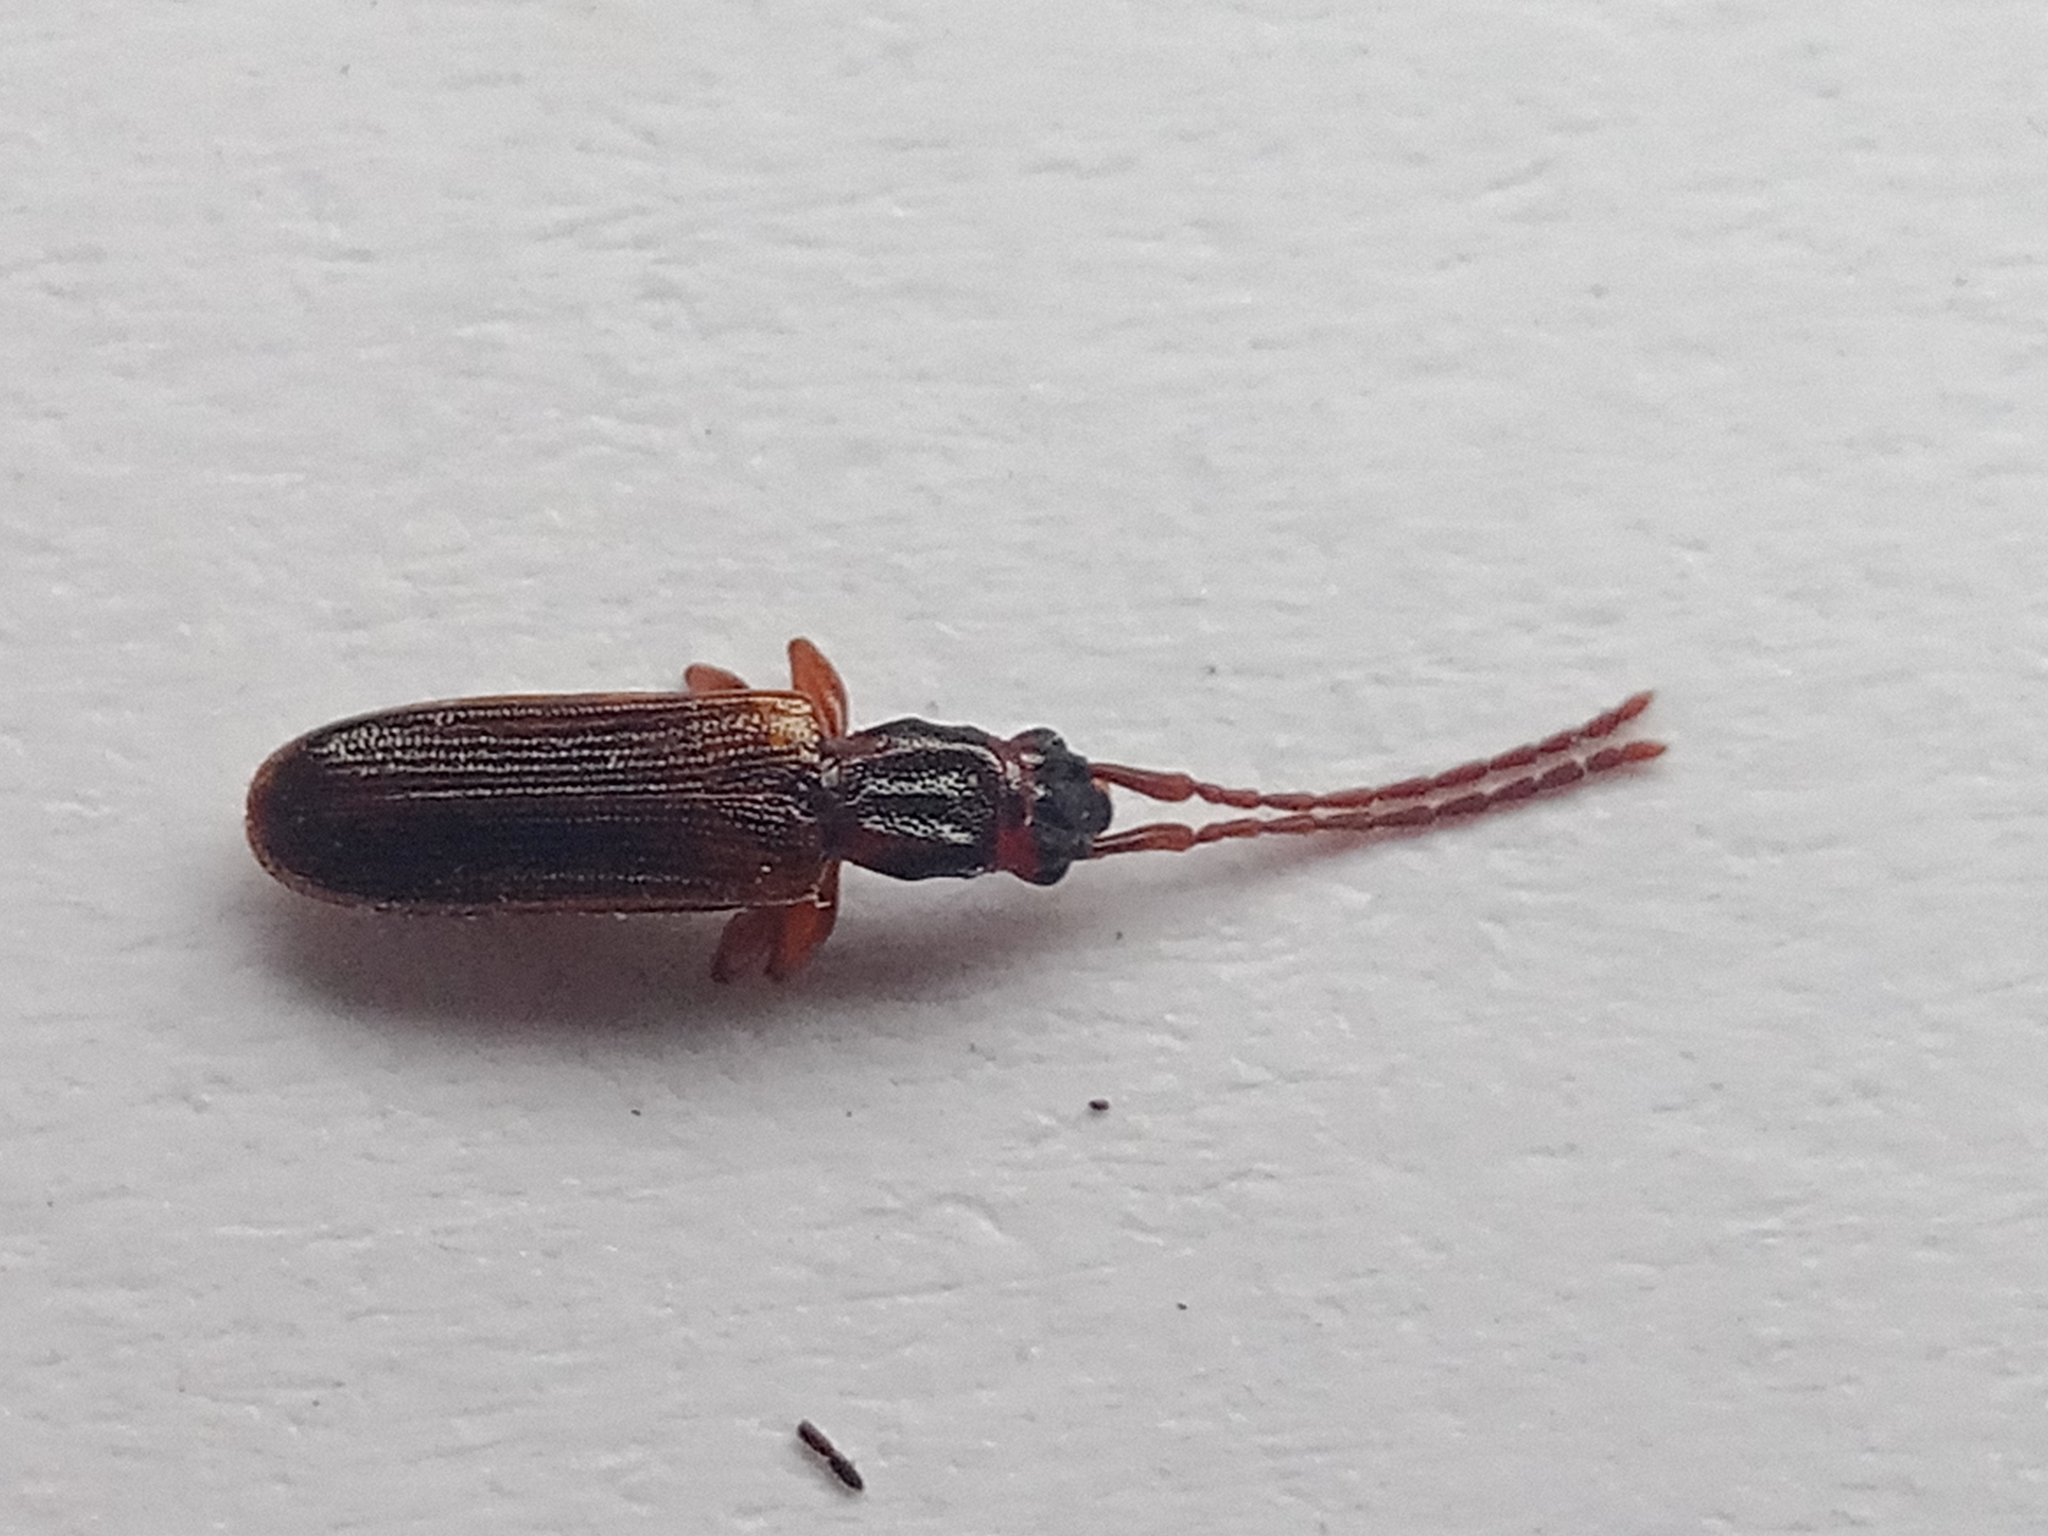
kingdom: Animalia
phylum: Arthropoda
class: Insecta
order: Coleoptera
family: Silvanidae
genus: Dendrophagus
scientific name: Dendrophagus crenatus
